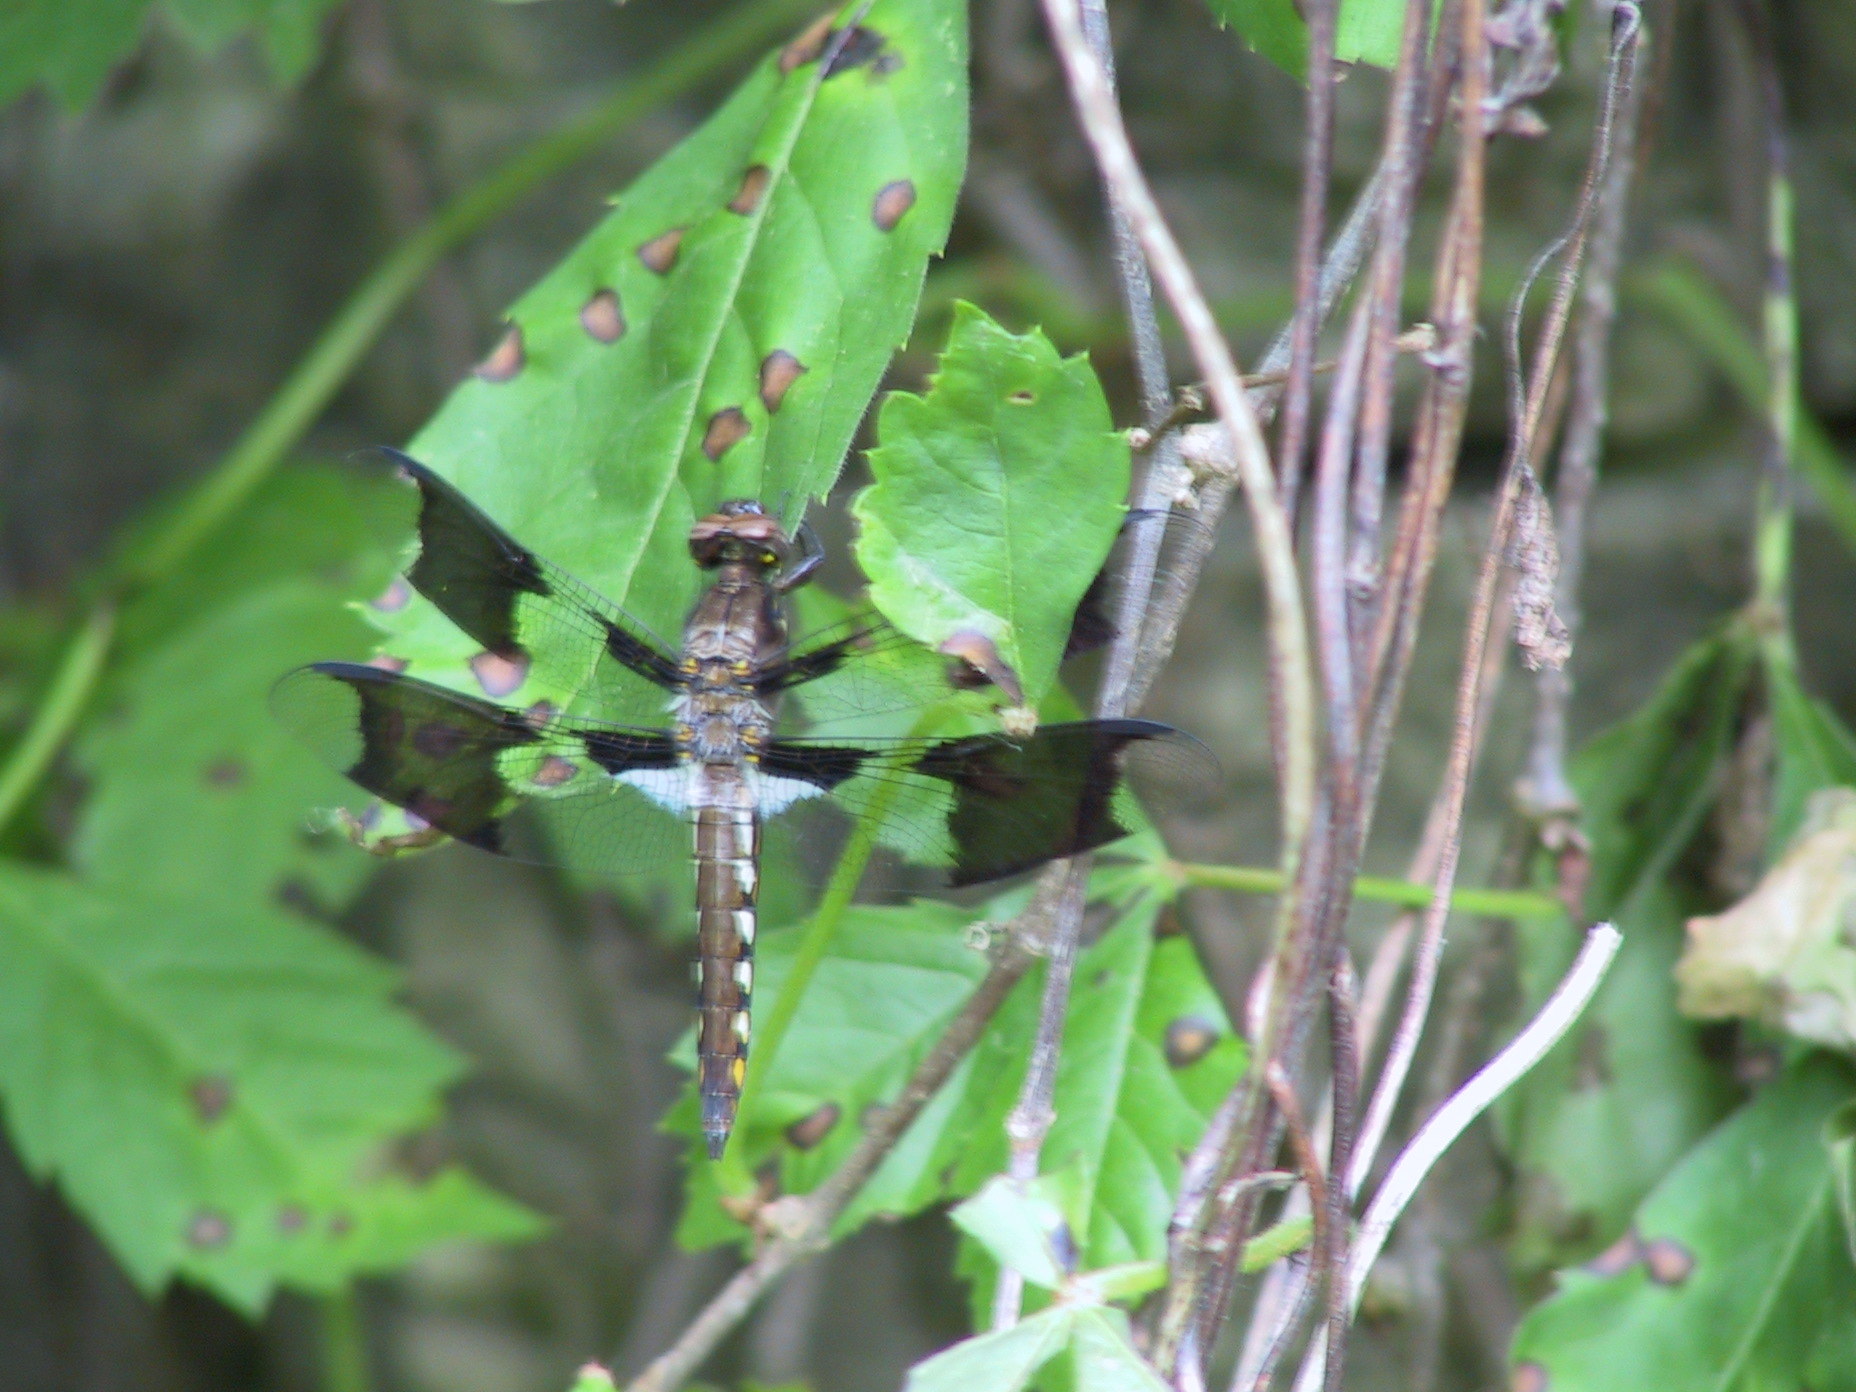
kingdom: Animalia
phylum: Arthropoda
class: Insecta
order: Odonata
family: Libellulidae
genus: Plathemis
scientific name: Plathemis lydia
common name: Common whitetail
